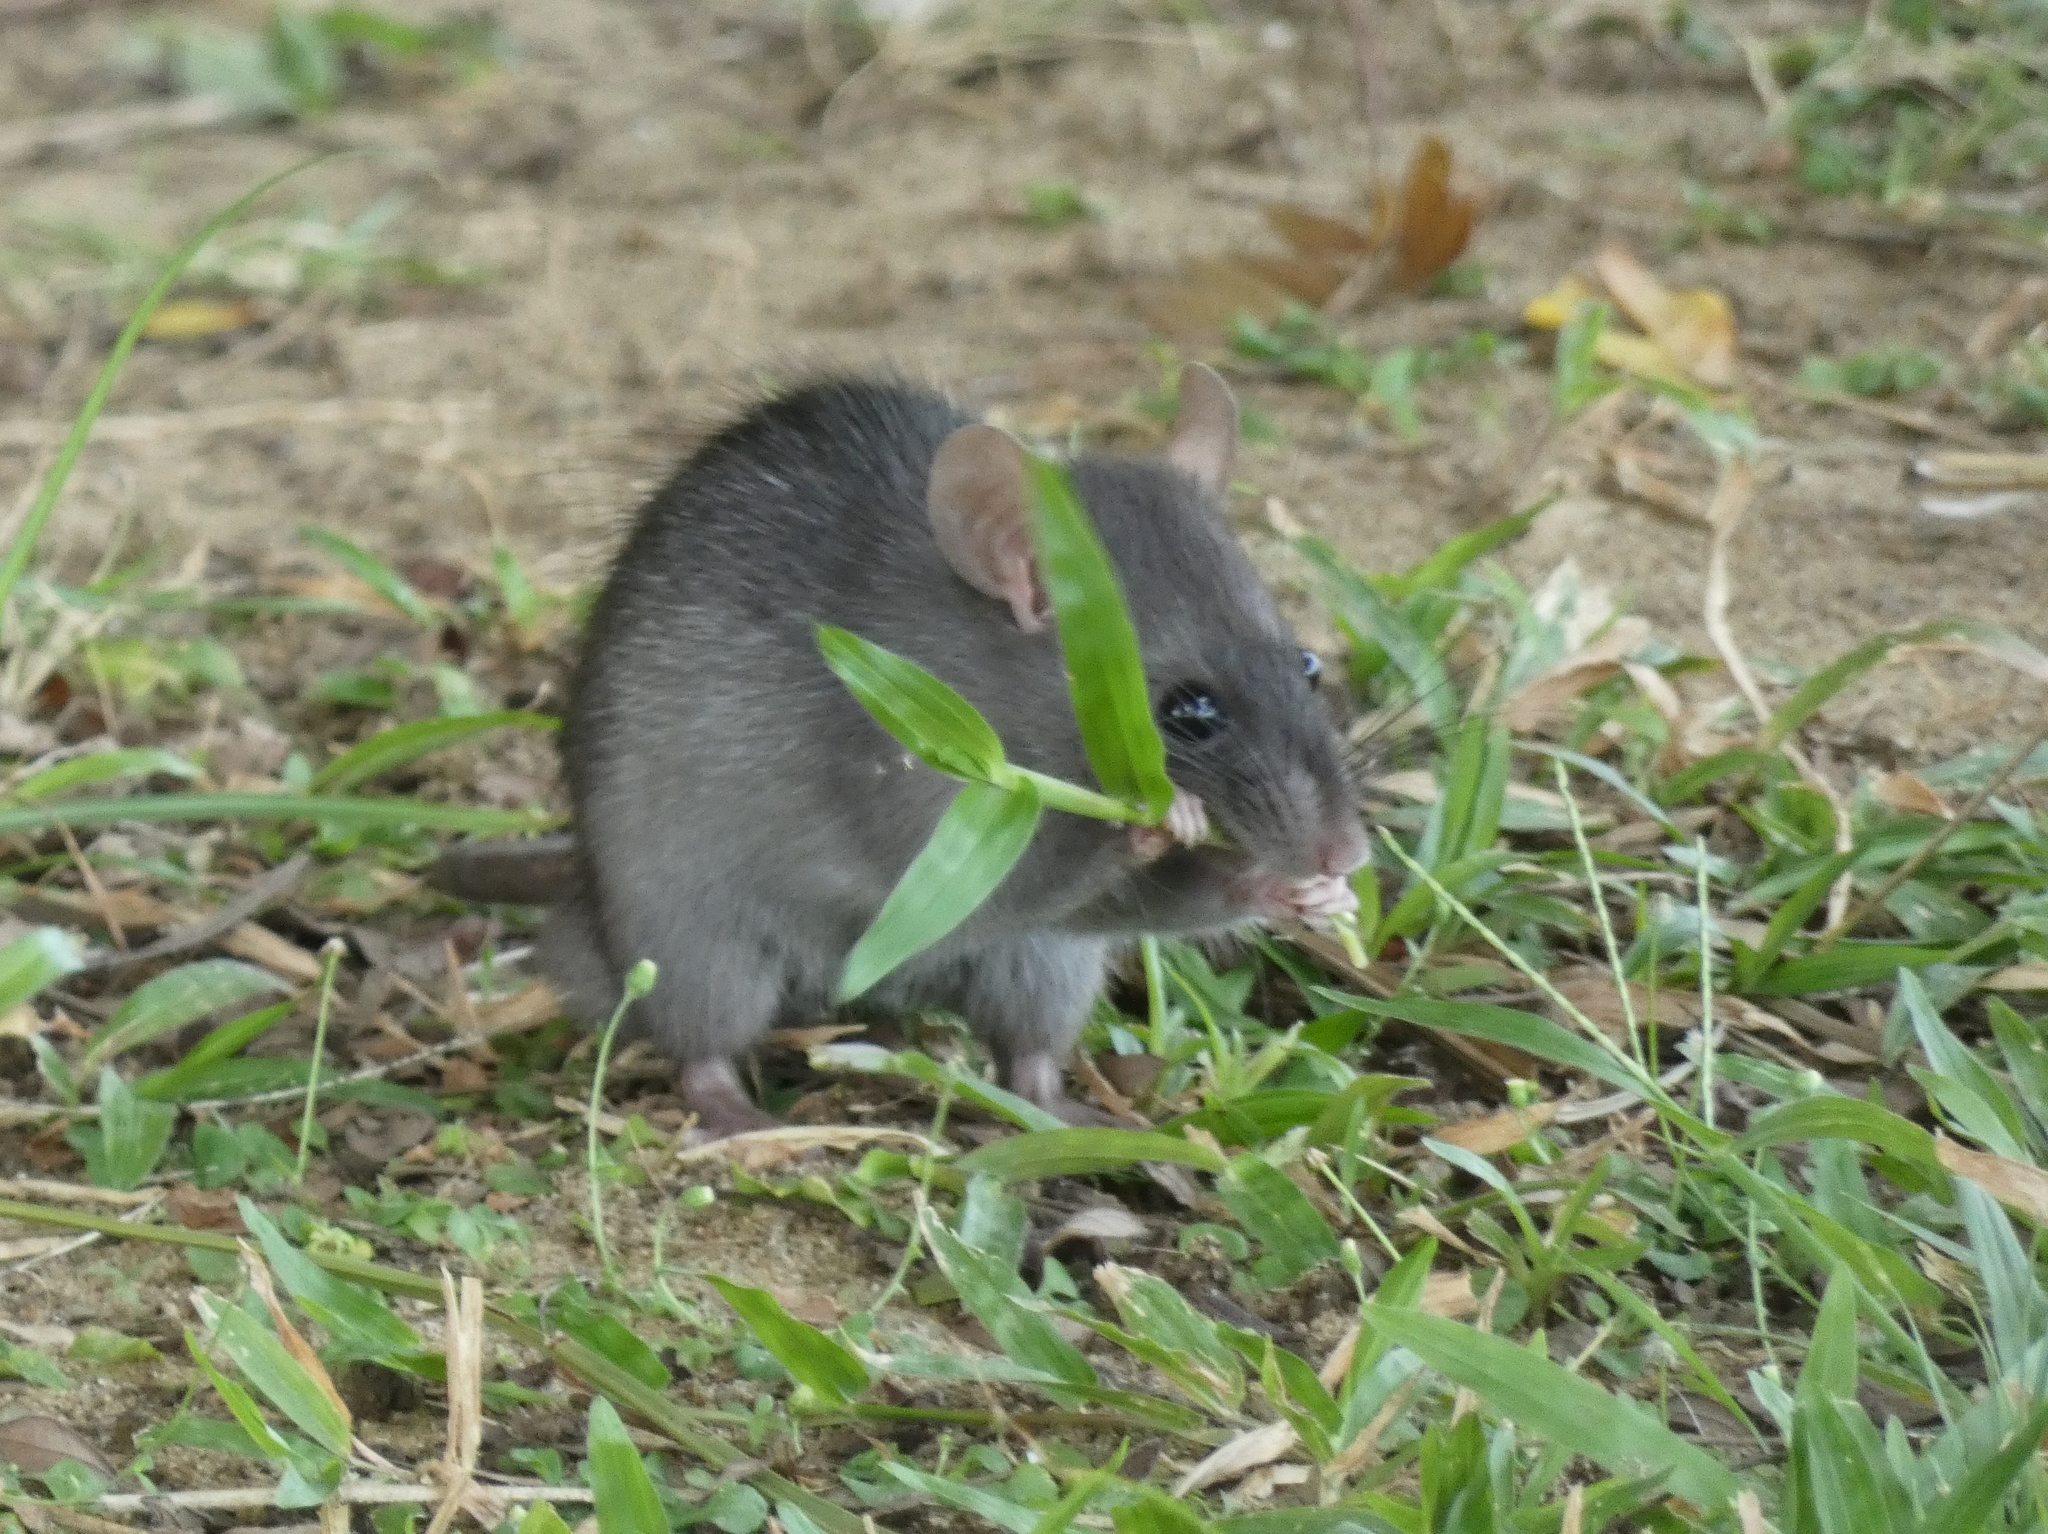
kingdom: Animalia
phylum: Chordata
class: Mammalia
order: Rodentia
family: Muridae
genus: Rattus
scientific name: Rattus rattus
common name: Black rat
